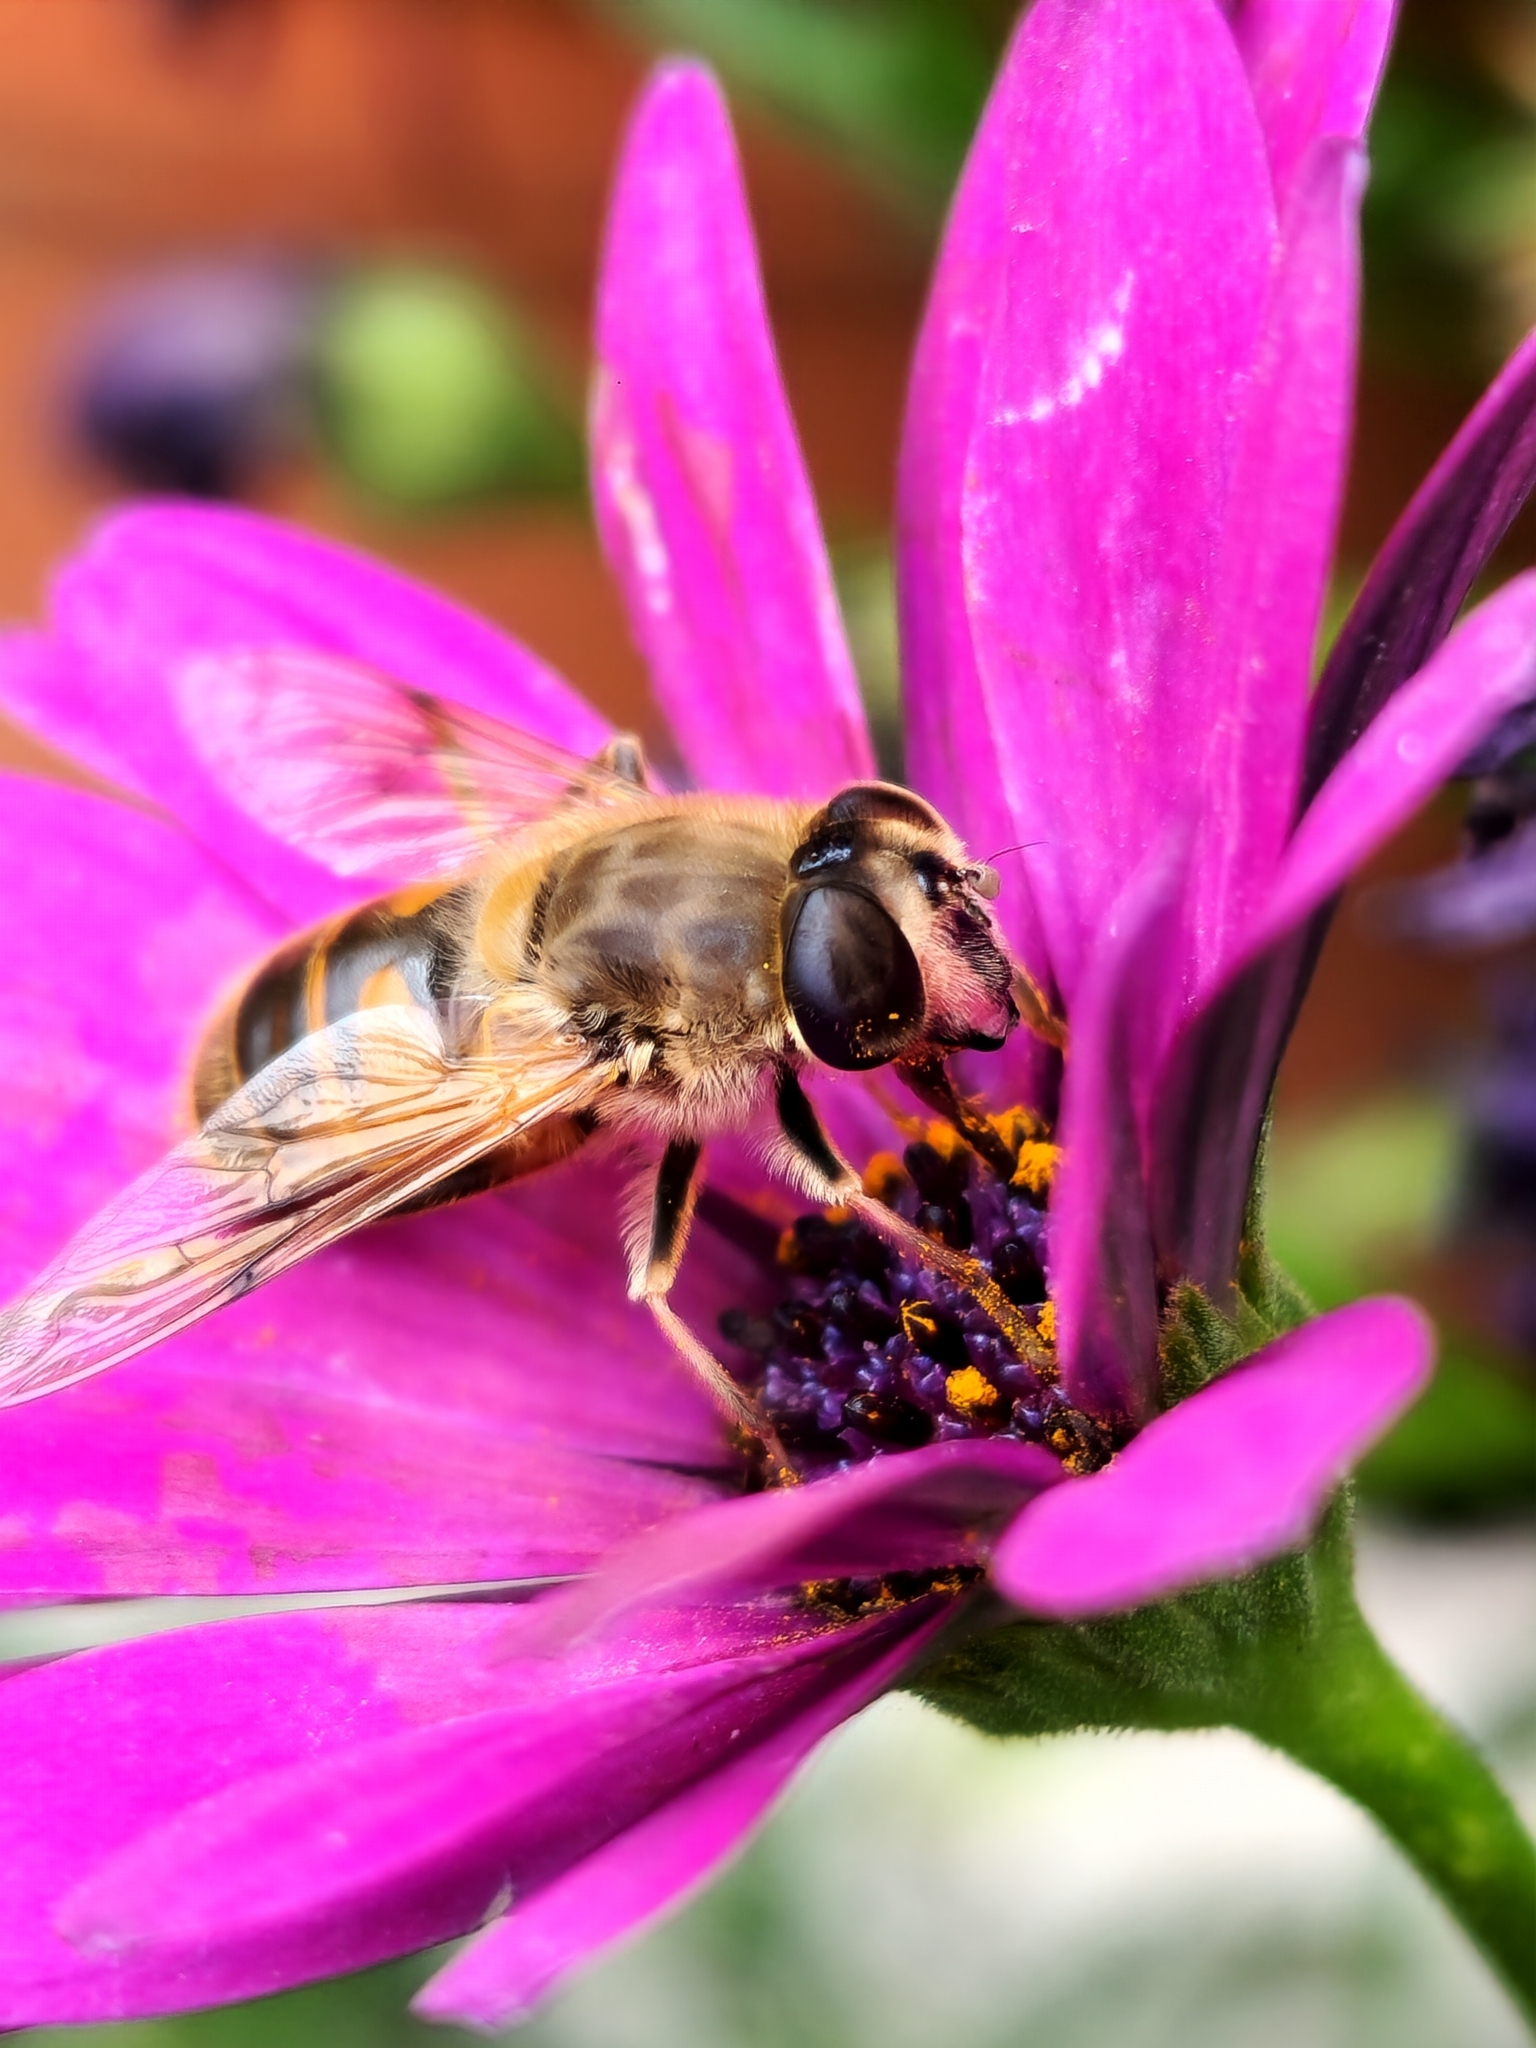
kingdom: Animalia
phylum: Arthropoda
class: Insecta
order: Diptera
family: Syrphidae
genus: Eristalis
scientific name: Eristalis tenax
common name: Drone fly
